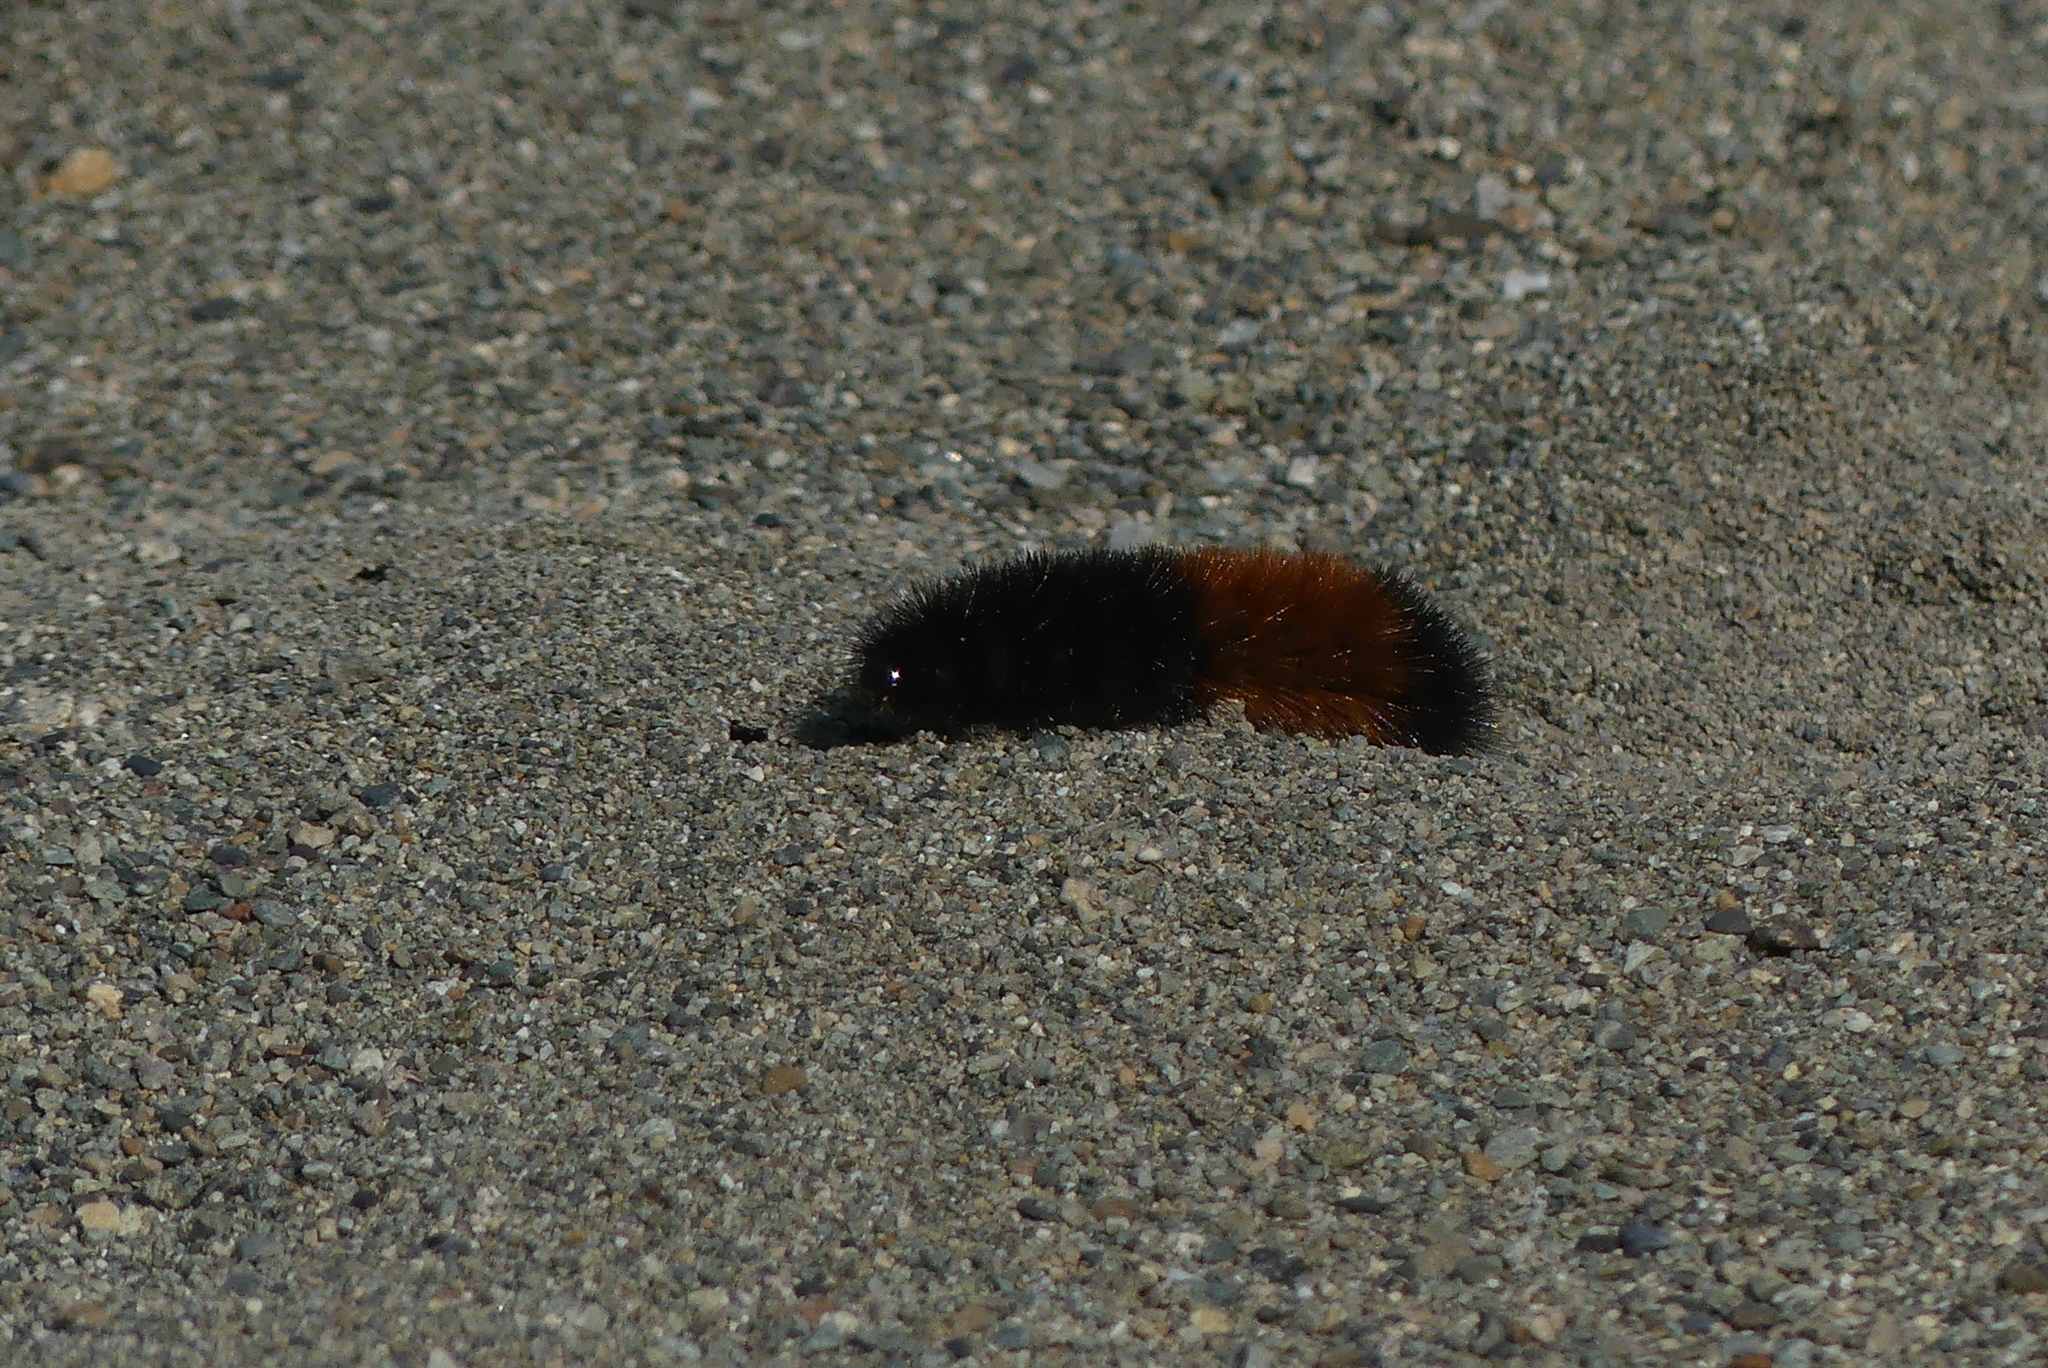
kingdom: Animalia
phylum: Arthropoda
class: Insecta
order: Lepidoptera
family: Erebidae
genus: Pyrrharctia
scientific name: Pyrrharctia isabella
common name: Isabella tiger moth
